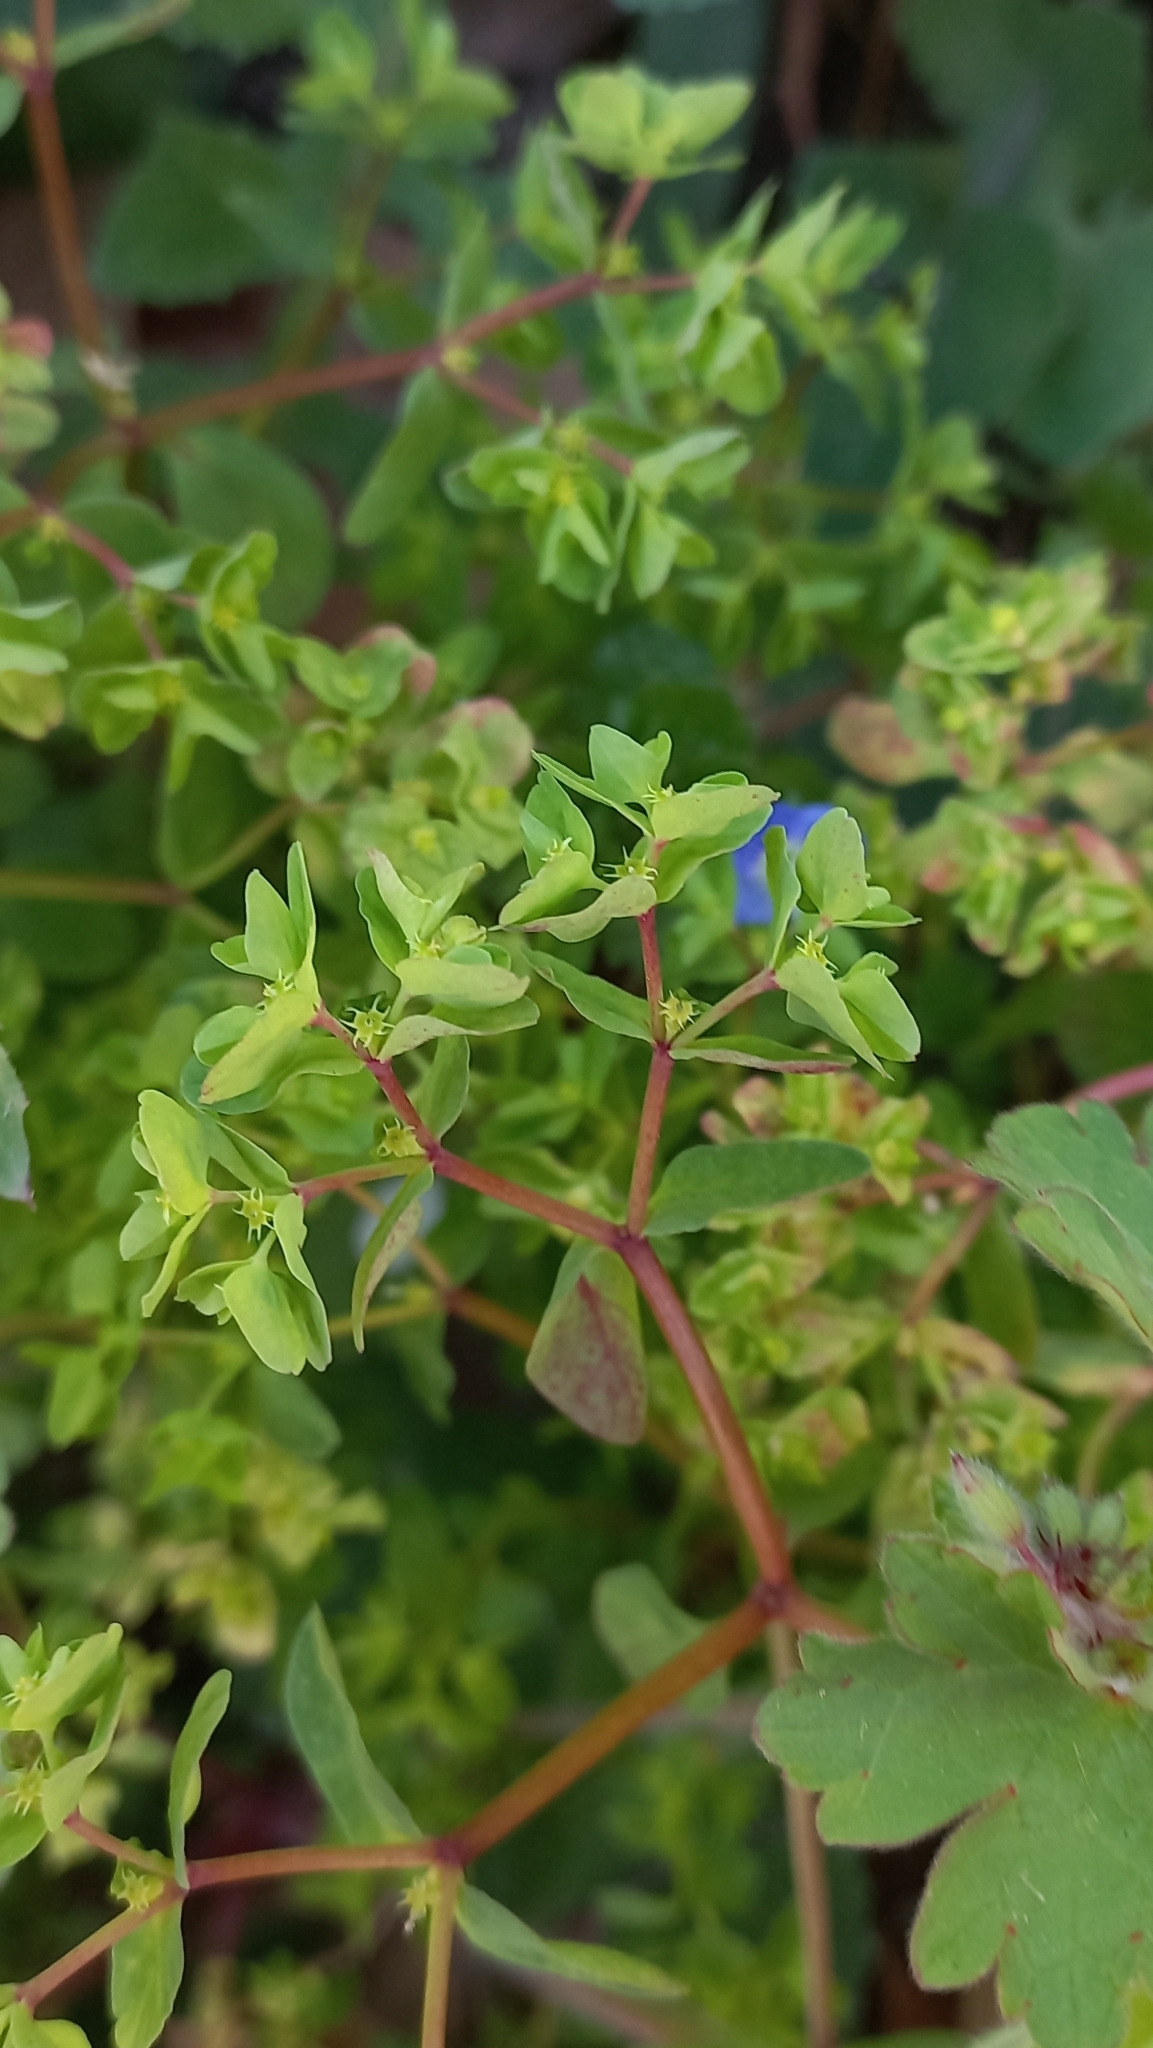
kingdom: Plantae
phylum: Tracheophyta
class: Magnoliopsida
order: Malpighiales
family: Euphorbiaceae
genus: Euphorbia
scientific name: Euphorbia peplus
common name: Petty spurge
